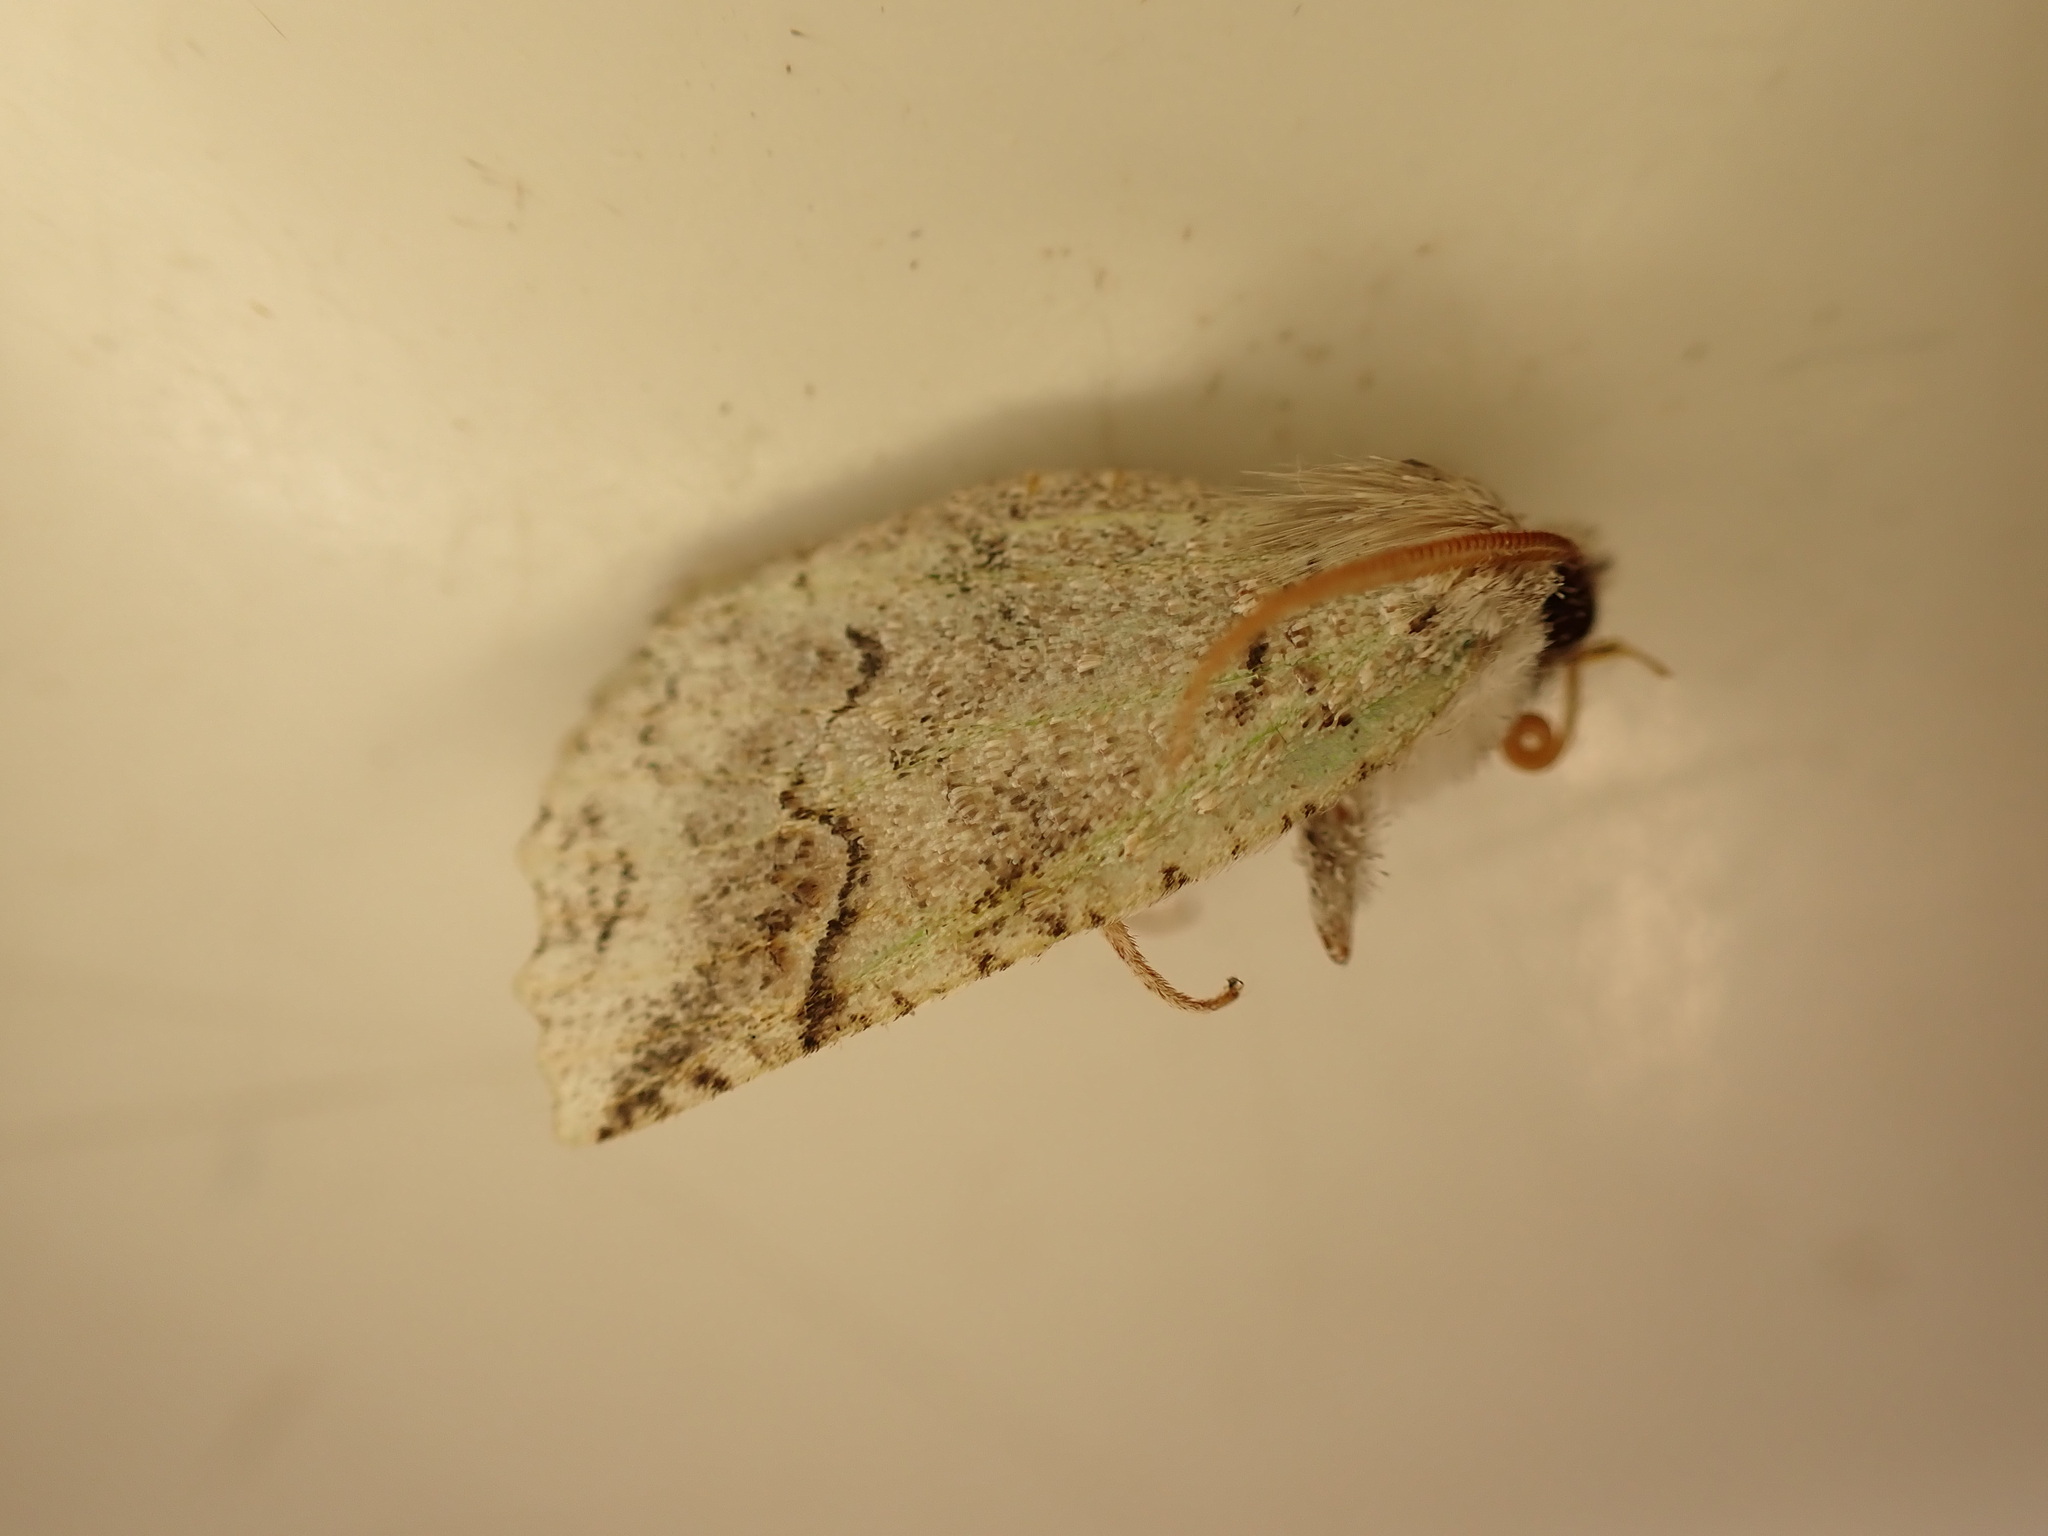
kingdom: Animalia
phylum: Arthropoda
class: Insecta
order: Lepidoptera
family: Geometridae
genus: Declana
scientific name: Declana floccosa
